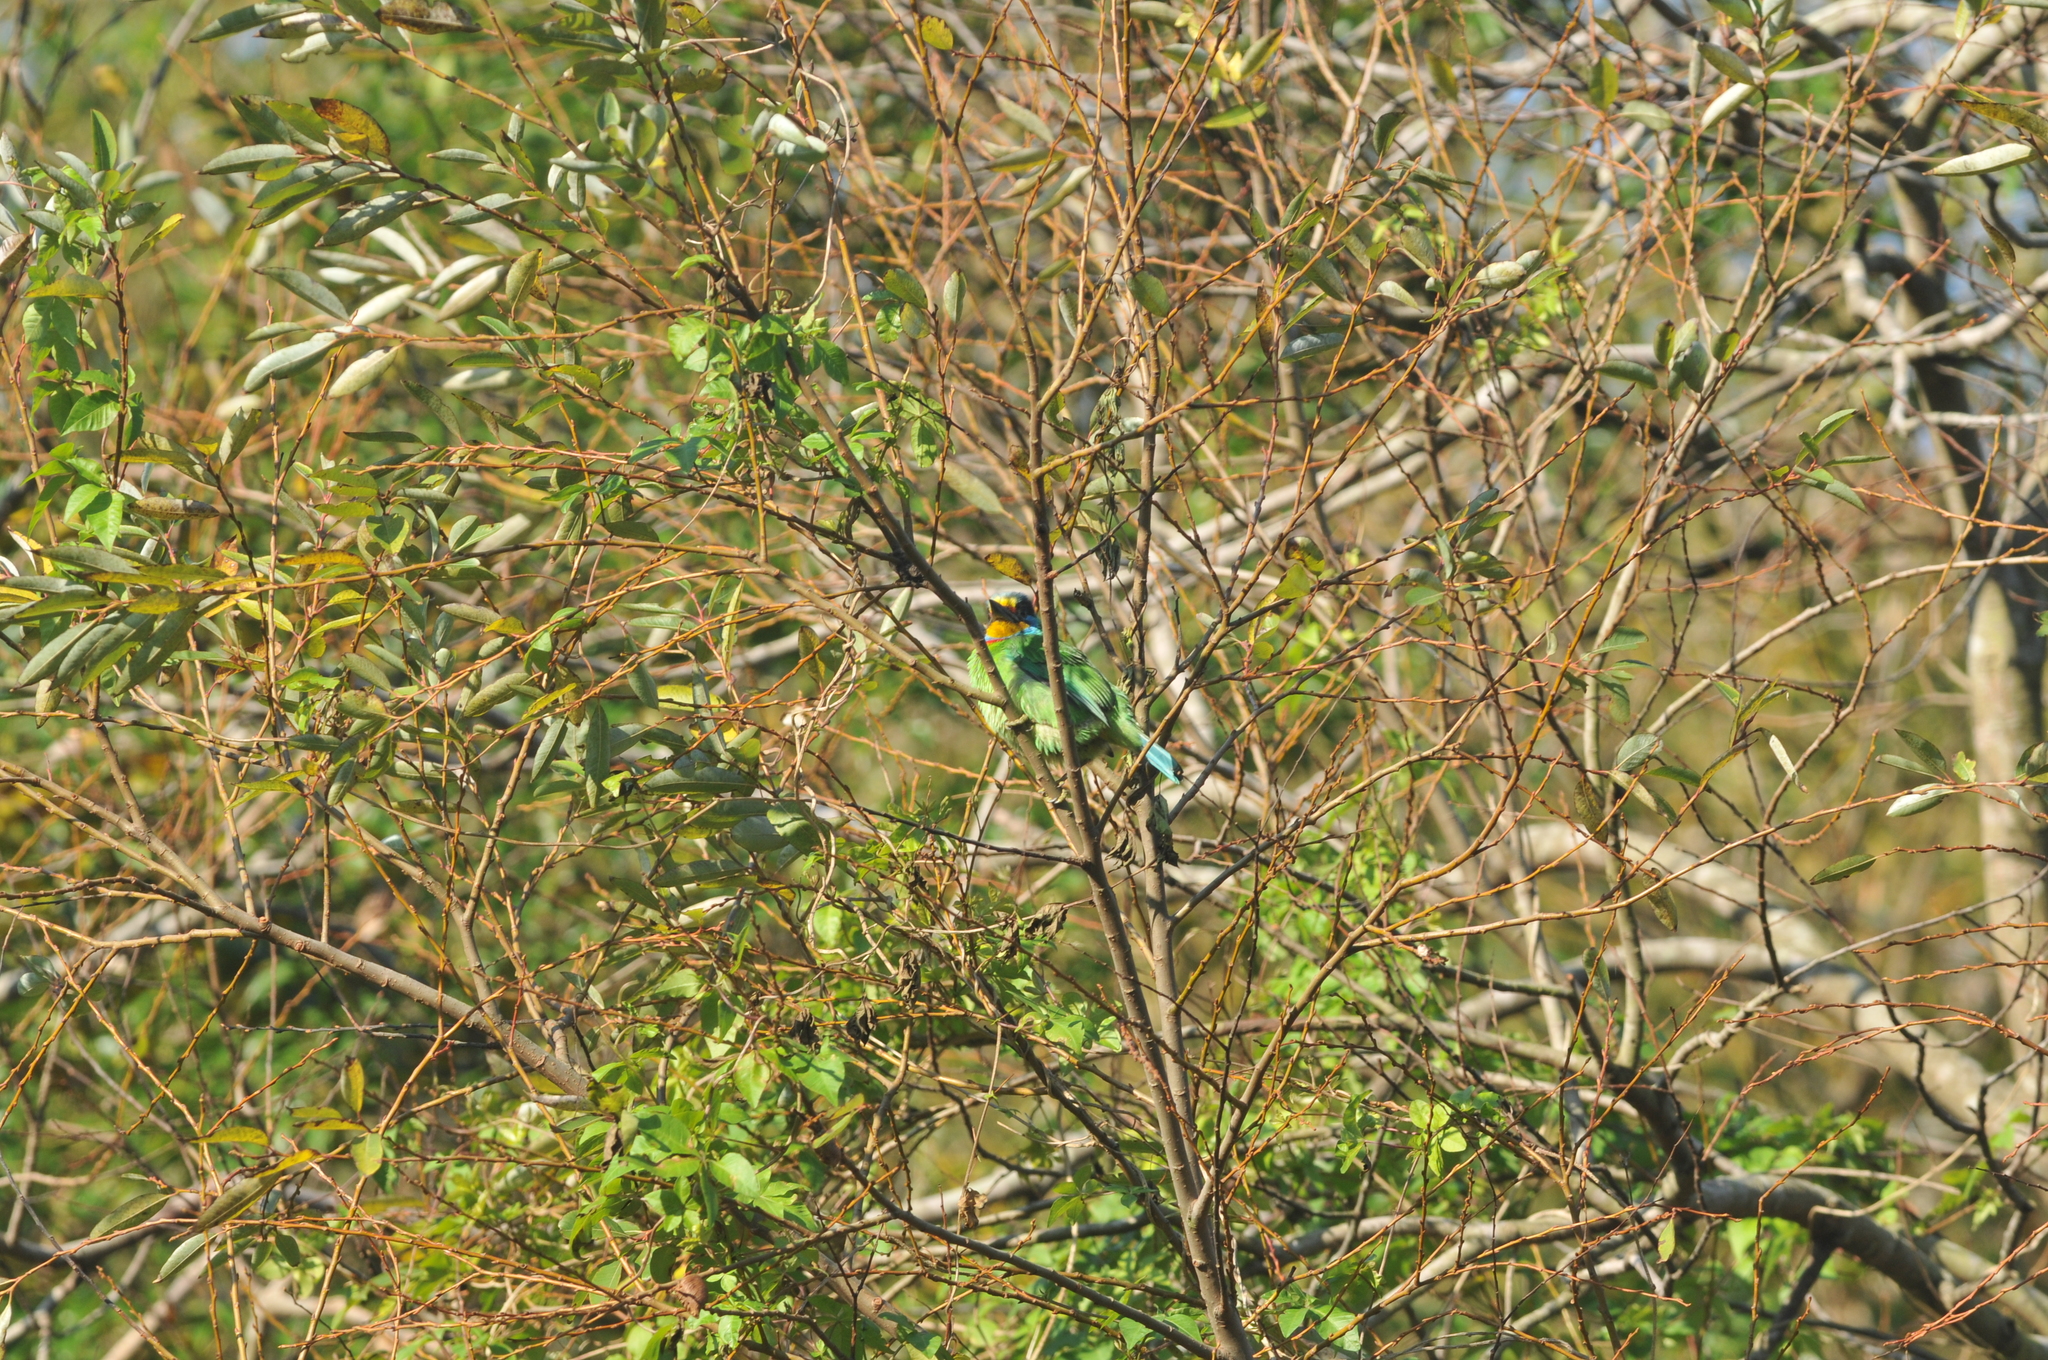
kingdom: Animalia
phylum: Chordata
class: Aves
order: Piciformes
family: Megalaimidae
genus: Psilopogon
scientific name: Psilopogon nuchalis
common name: Taiwan barbet
